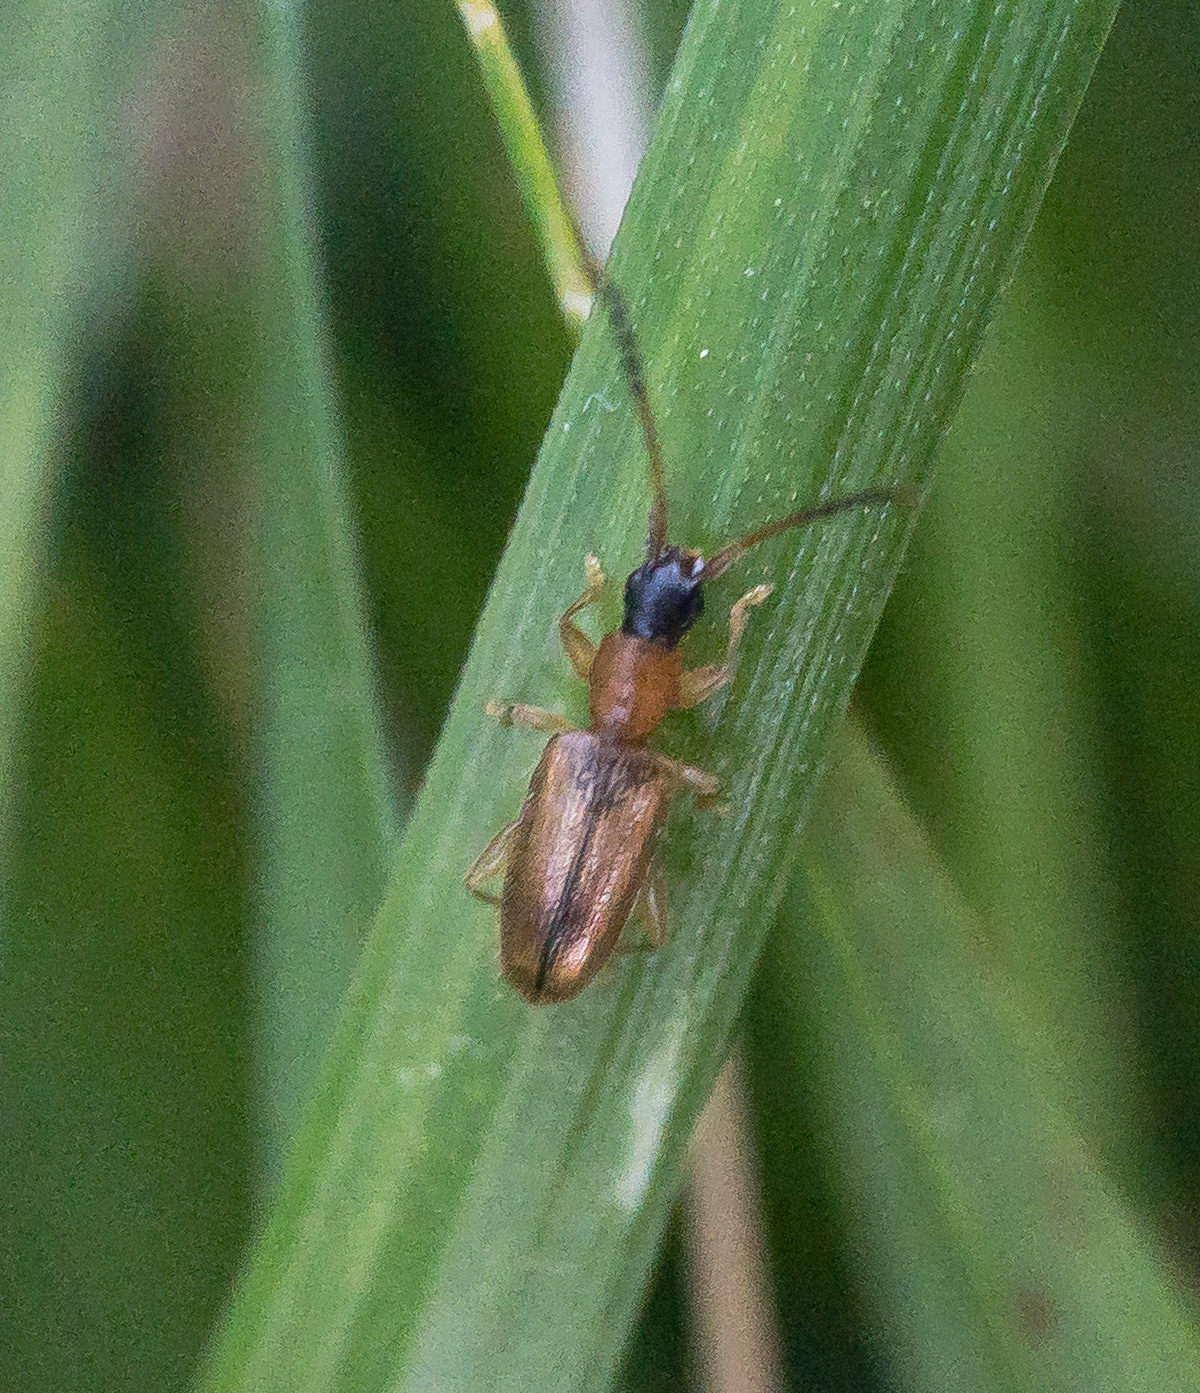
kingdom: Animalia
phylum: Arthropoda
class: Insecta
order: Coleoptera
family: Silvanidae
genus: Telephanus
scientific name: Telephanus velox
